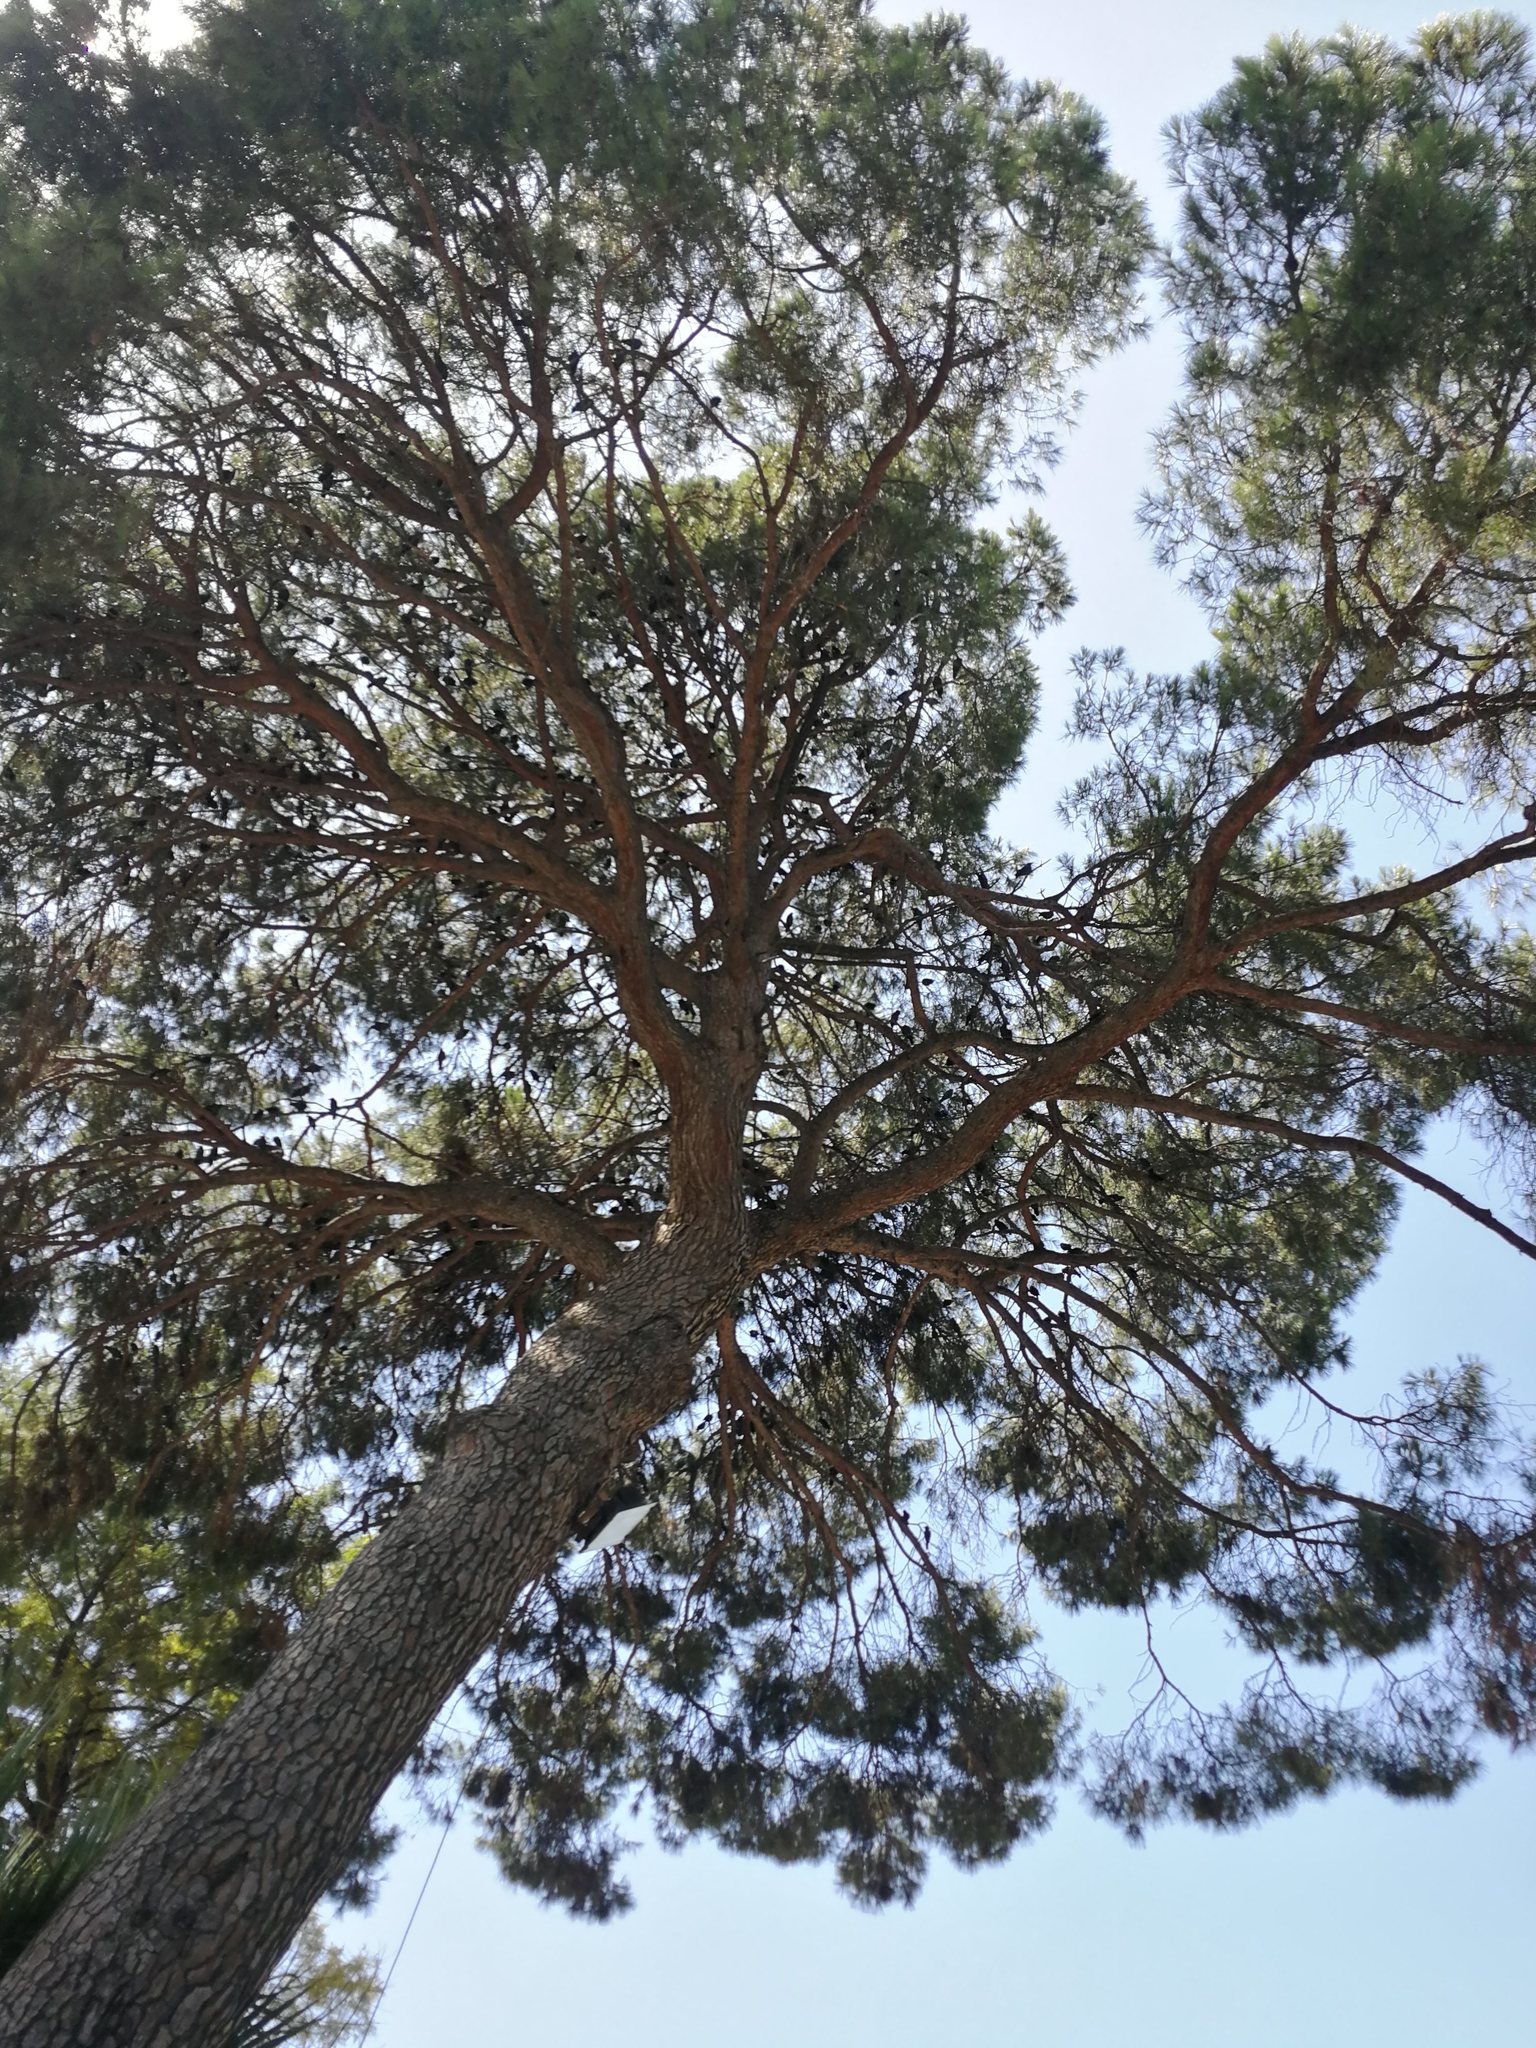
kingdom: Plantae
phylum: Tracheophyta
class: Pinopsida
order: Pinales
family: Pinaceae
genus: Pinus
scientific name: Pinus pinea
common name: Italian stone pine
